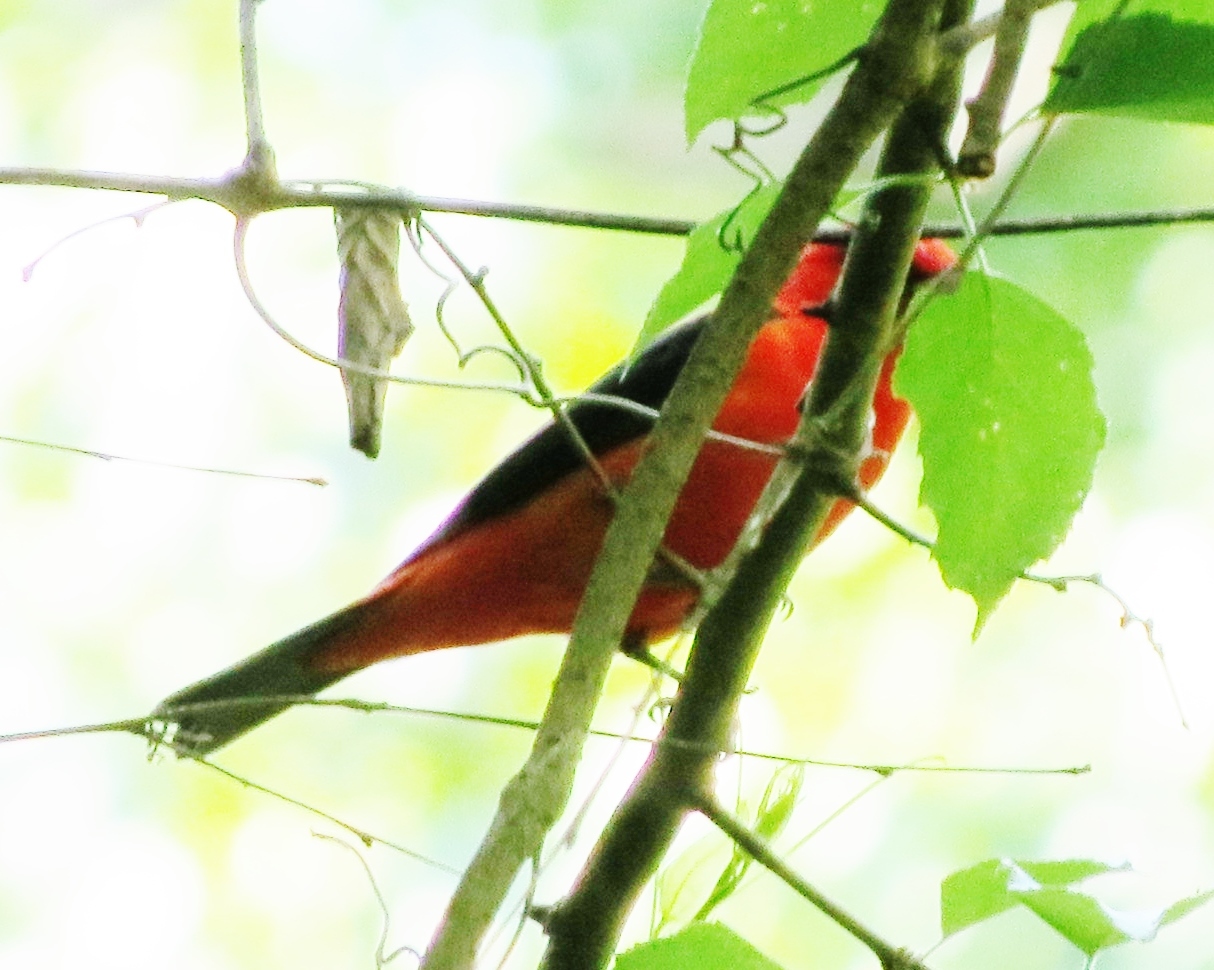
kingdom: Animalia
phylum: Chordata
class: Aves
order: Passeriformes
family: Cardinalidae
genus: Piranga
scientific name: Piranga olivacea
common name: Scarlet tanager
